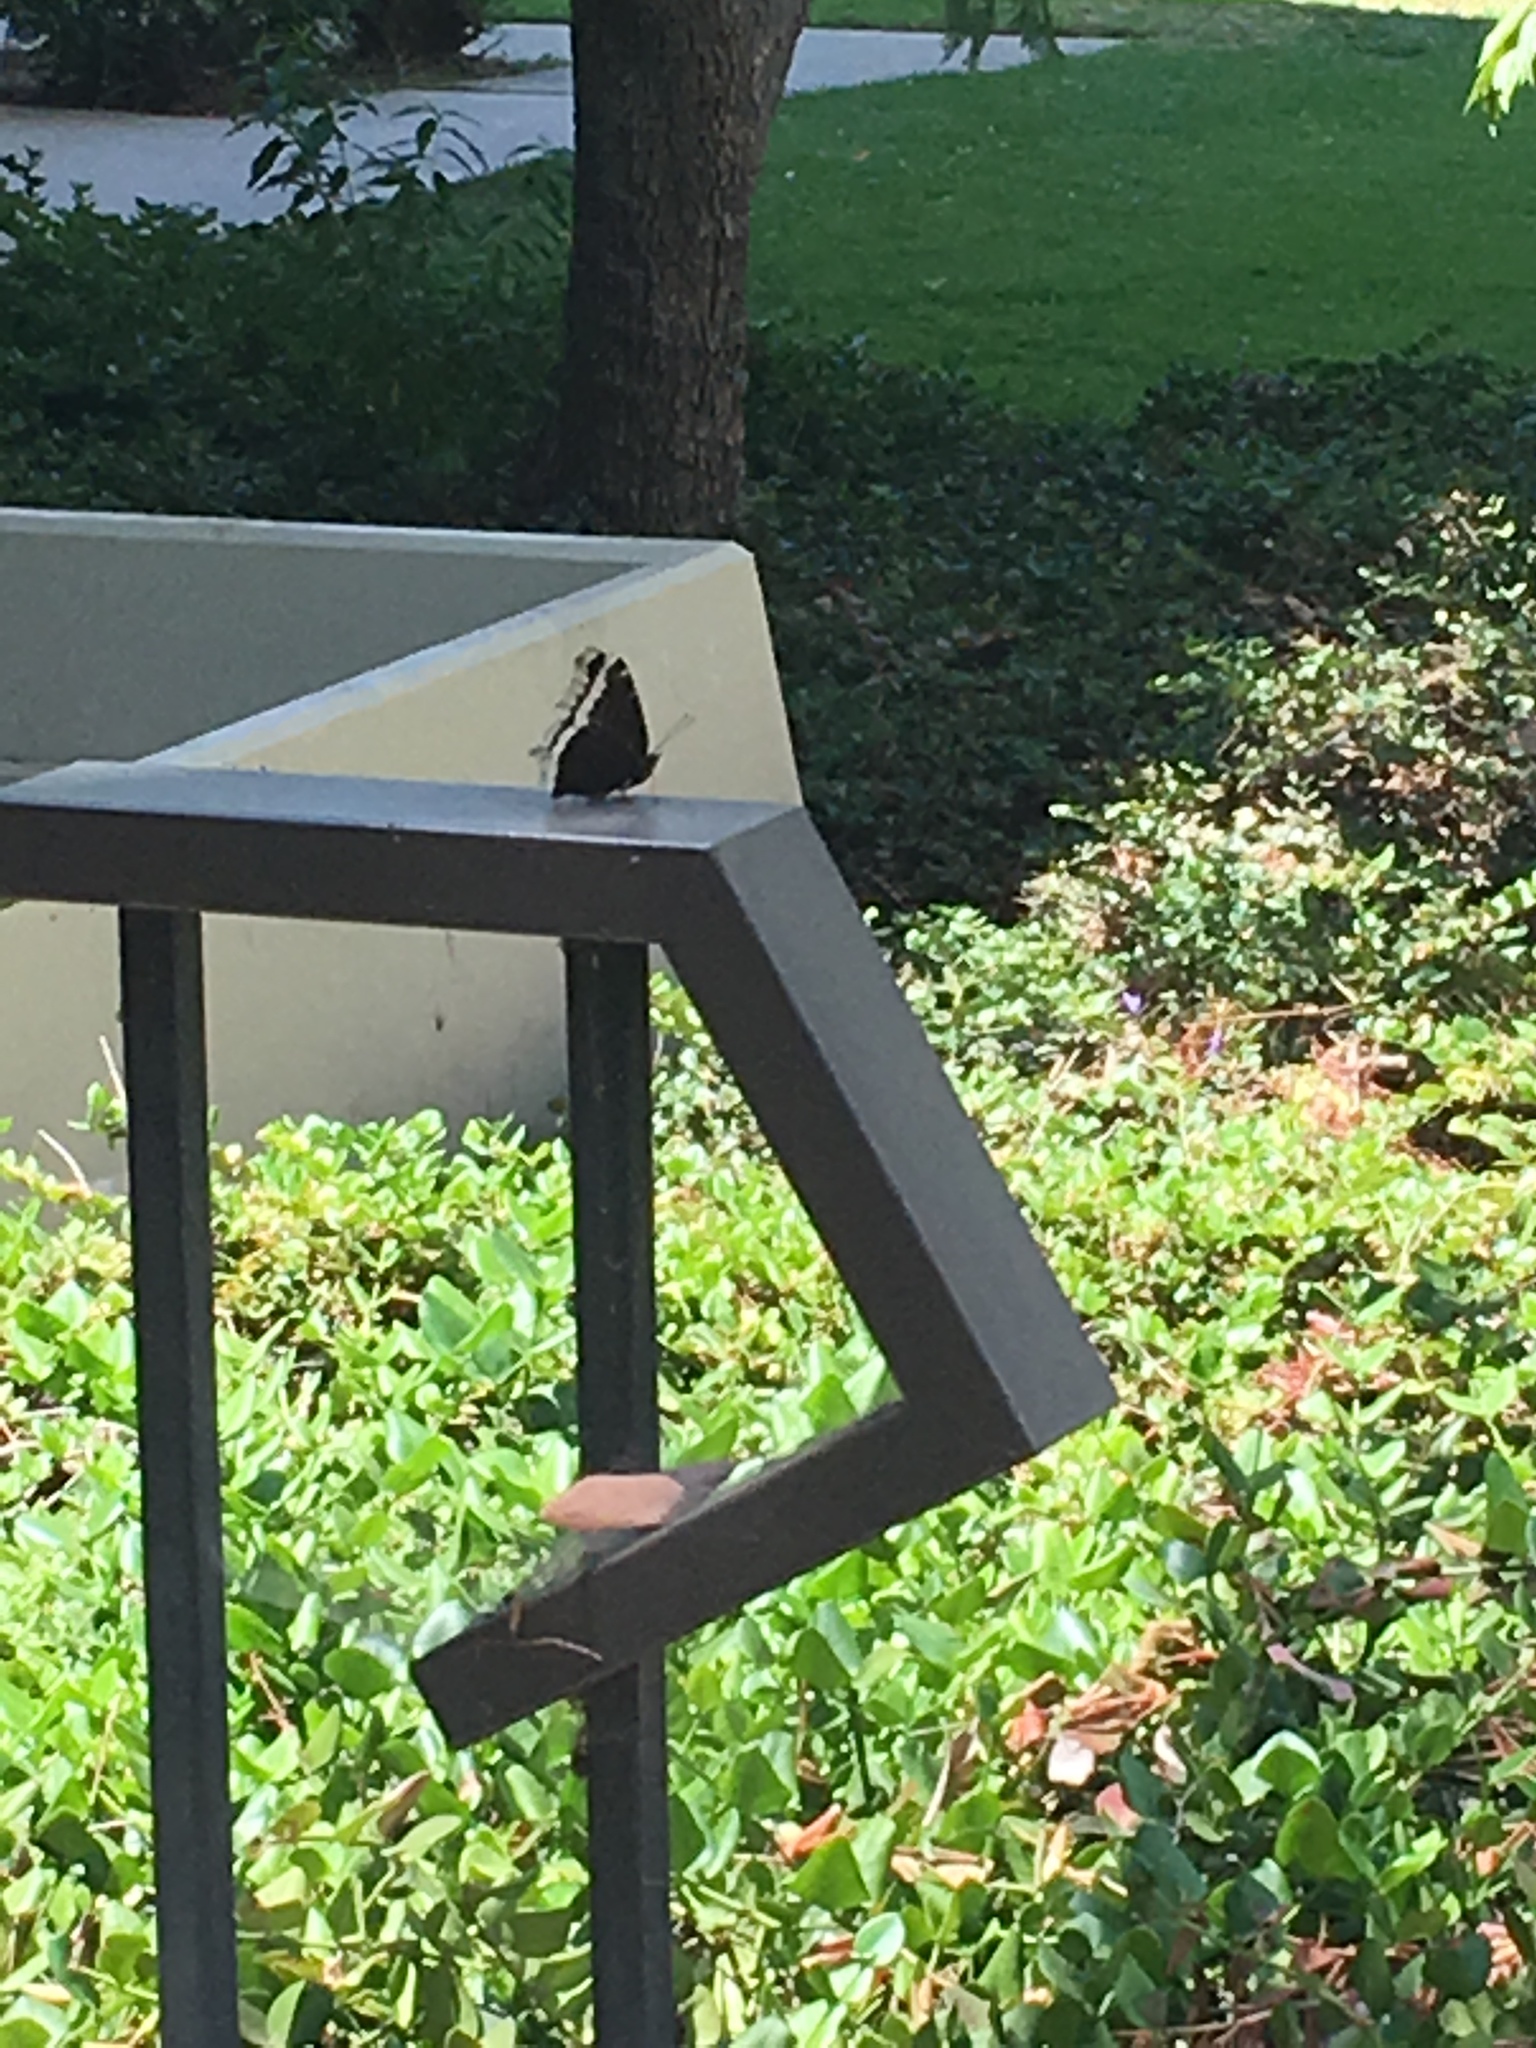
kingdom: Animalia
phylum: Arthropoda
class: Insecta
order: Lepidoptera
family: Nymphalidae
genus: Nymphalis
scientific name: Nymphalis antiopa
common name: Camberwell beauty
